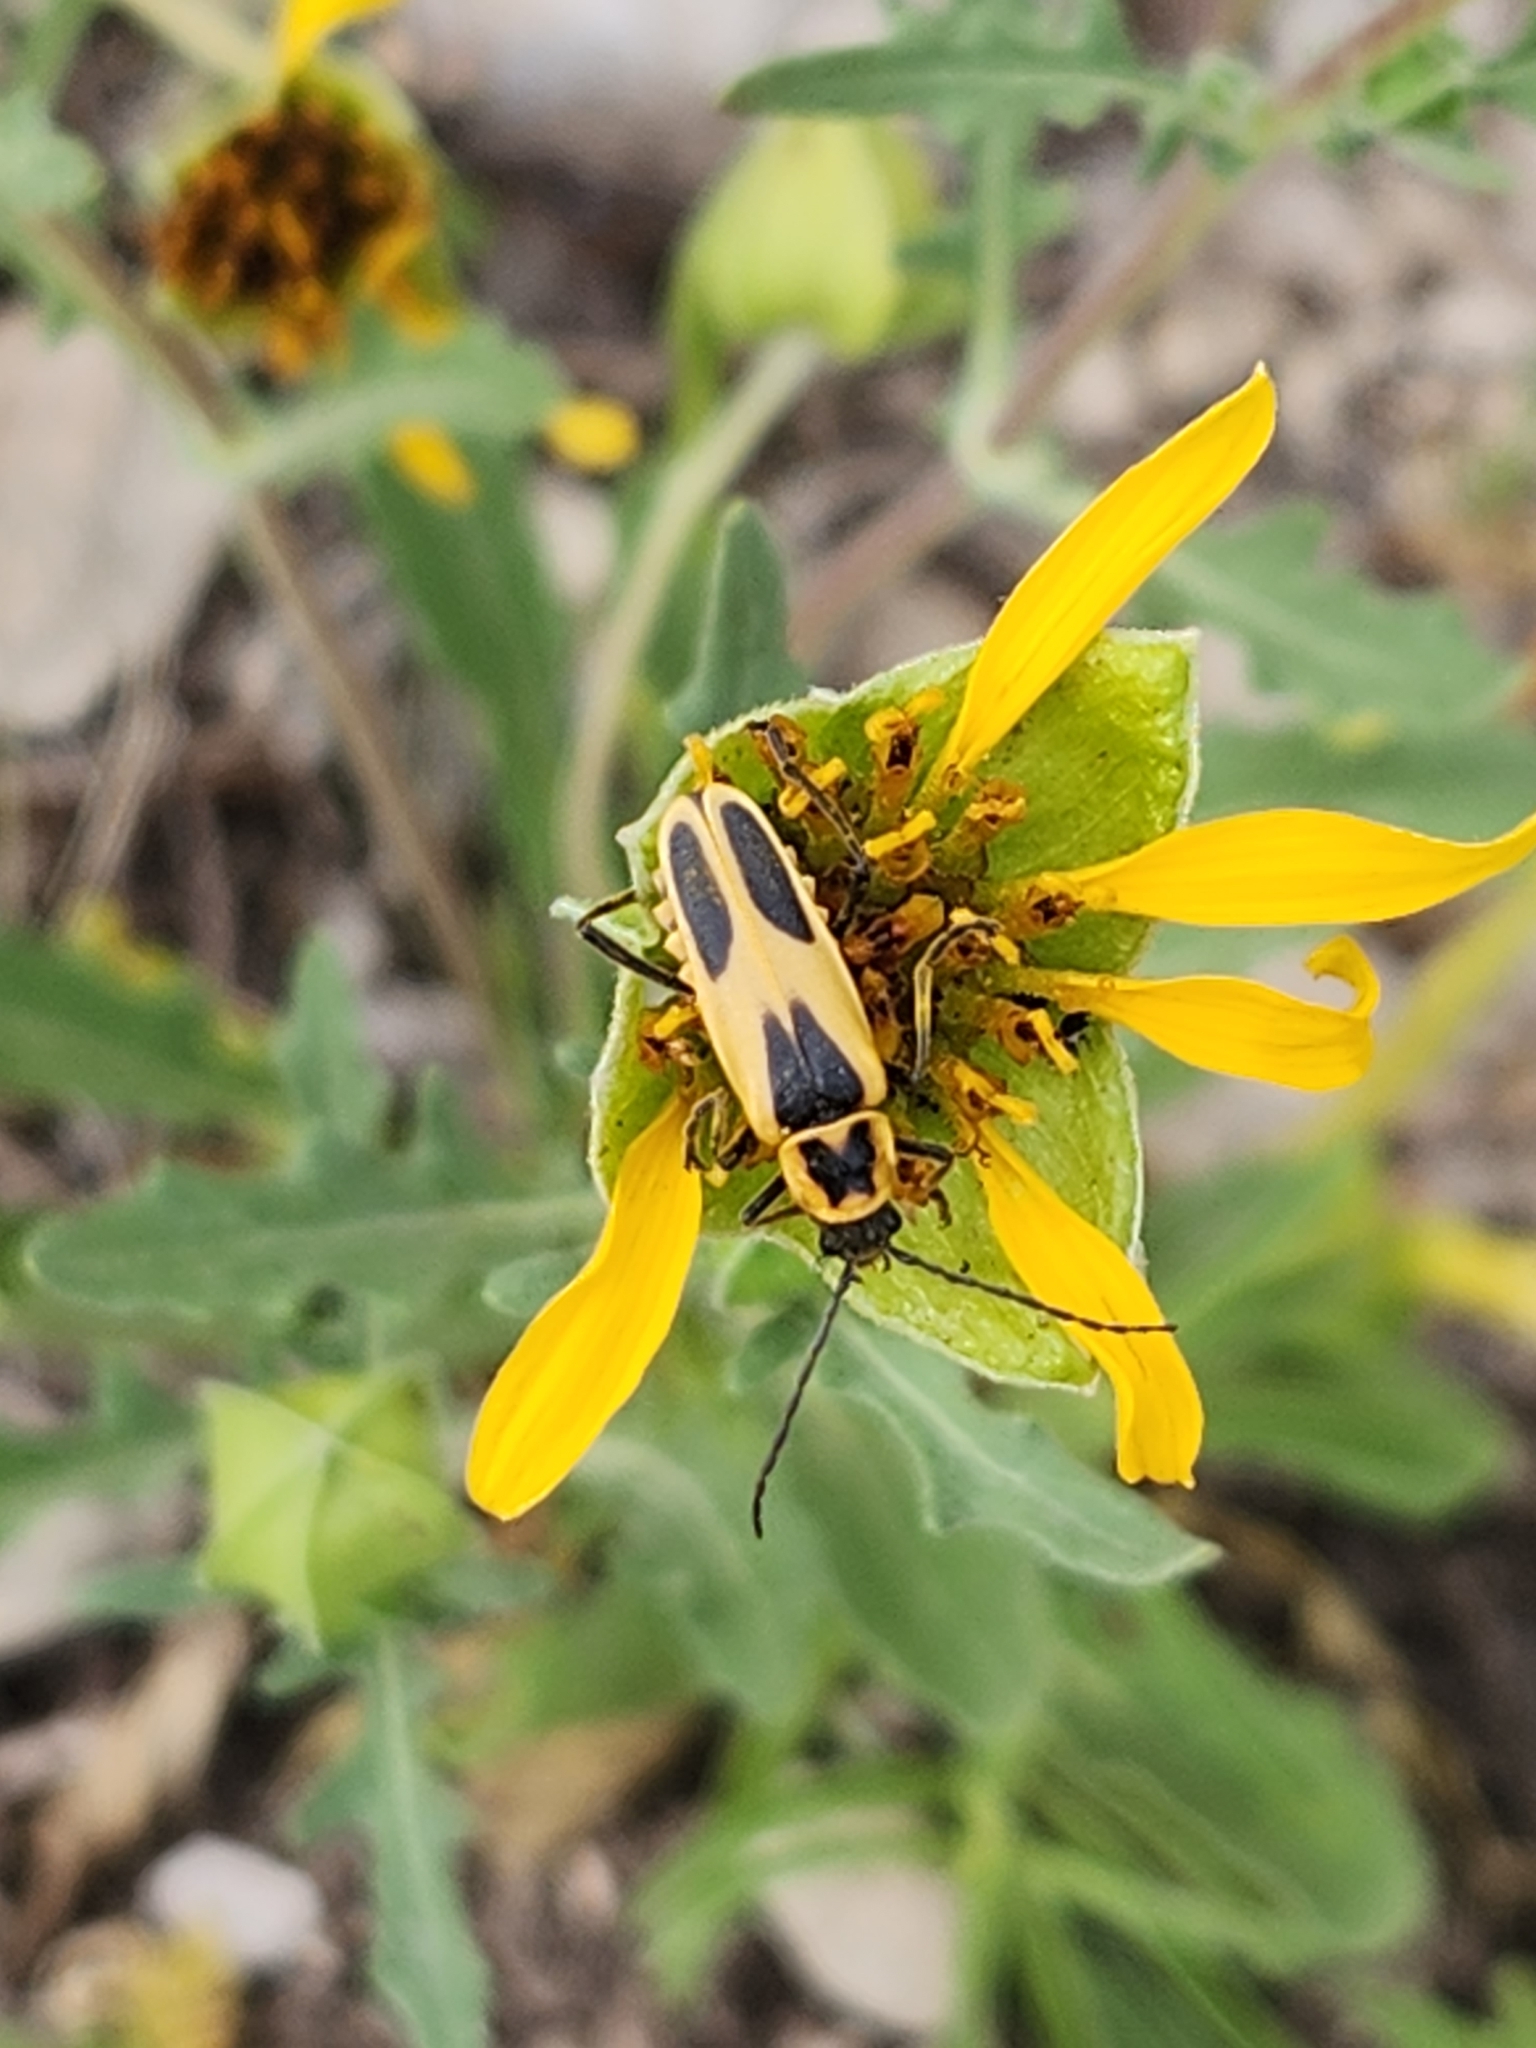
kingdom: Animalia
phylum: Arthropoda
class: Insecta
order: Coleoptera
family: Cantharidae
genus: Chauliognathus
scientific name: Chauliognathus scutellaris
